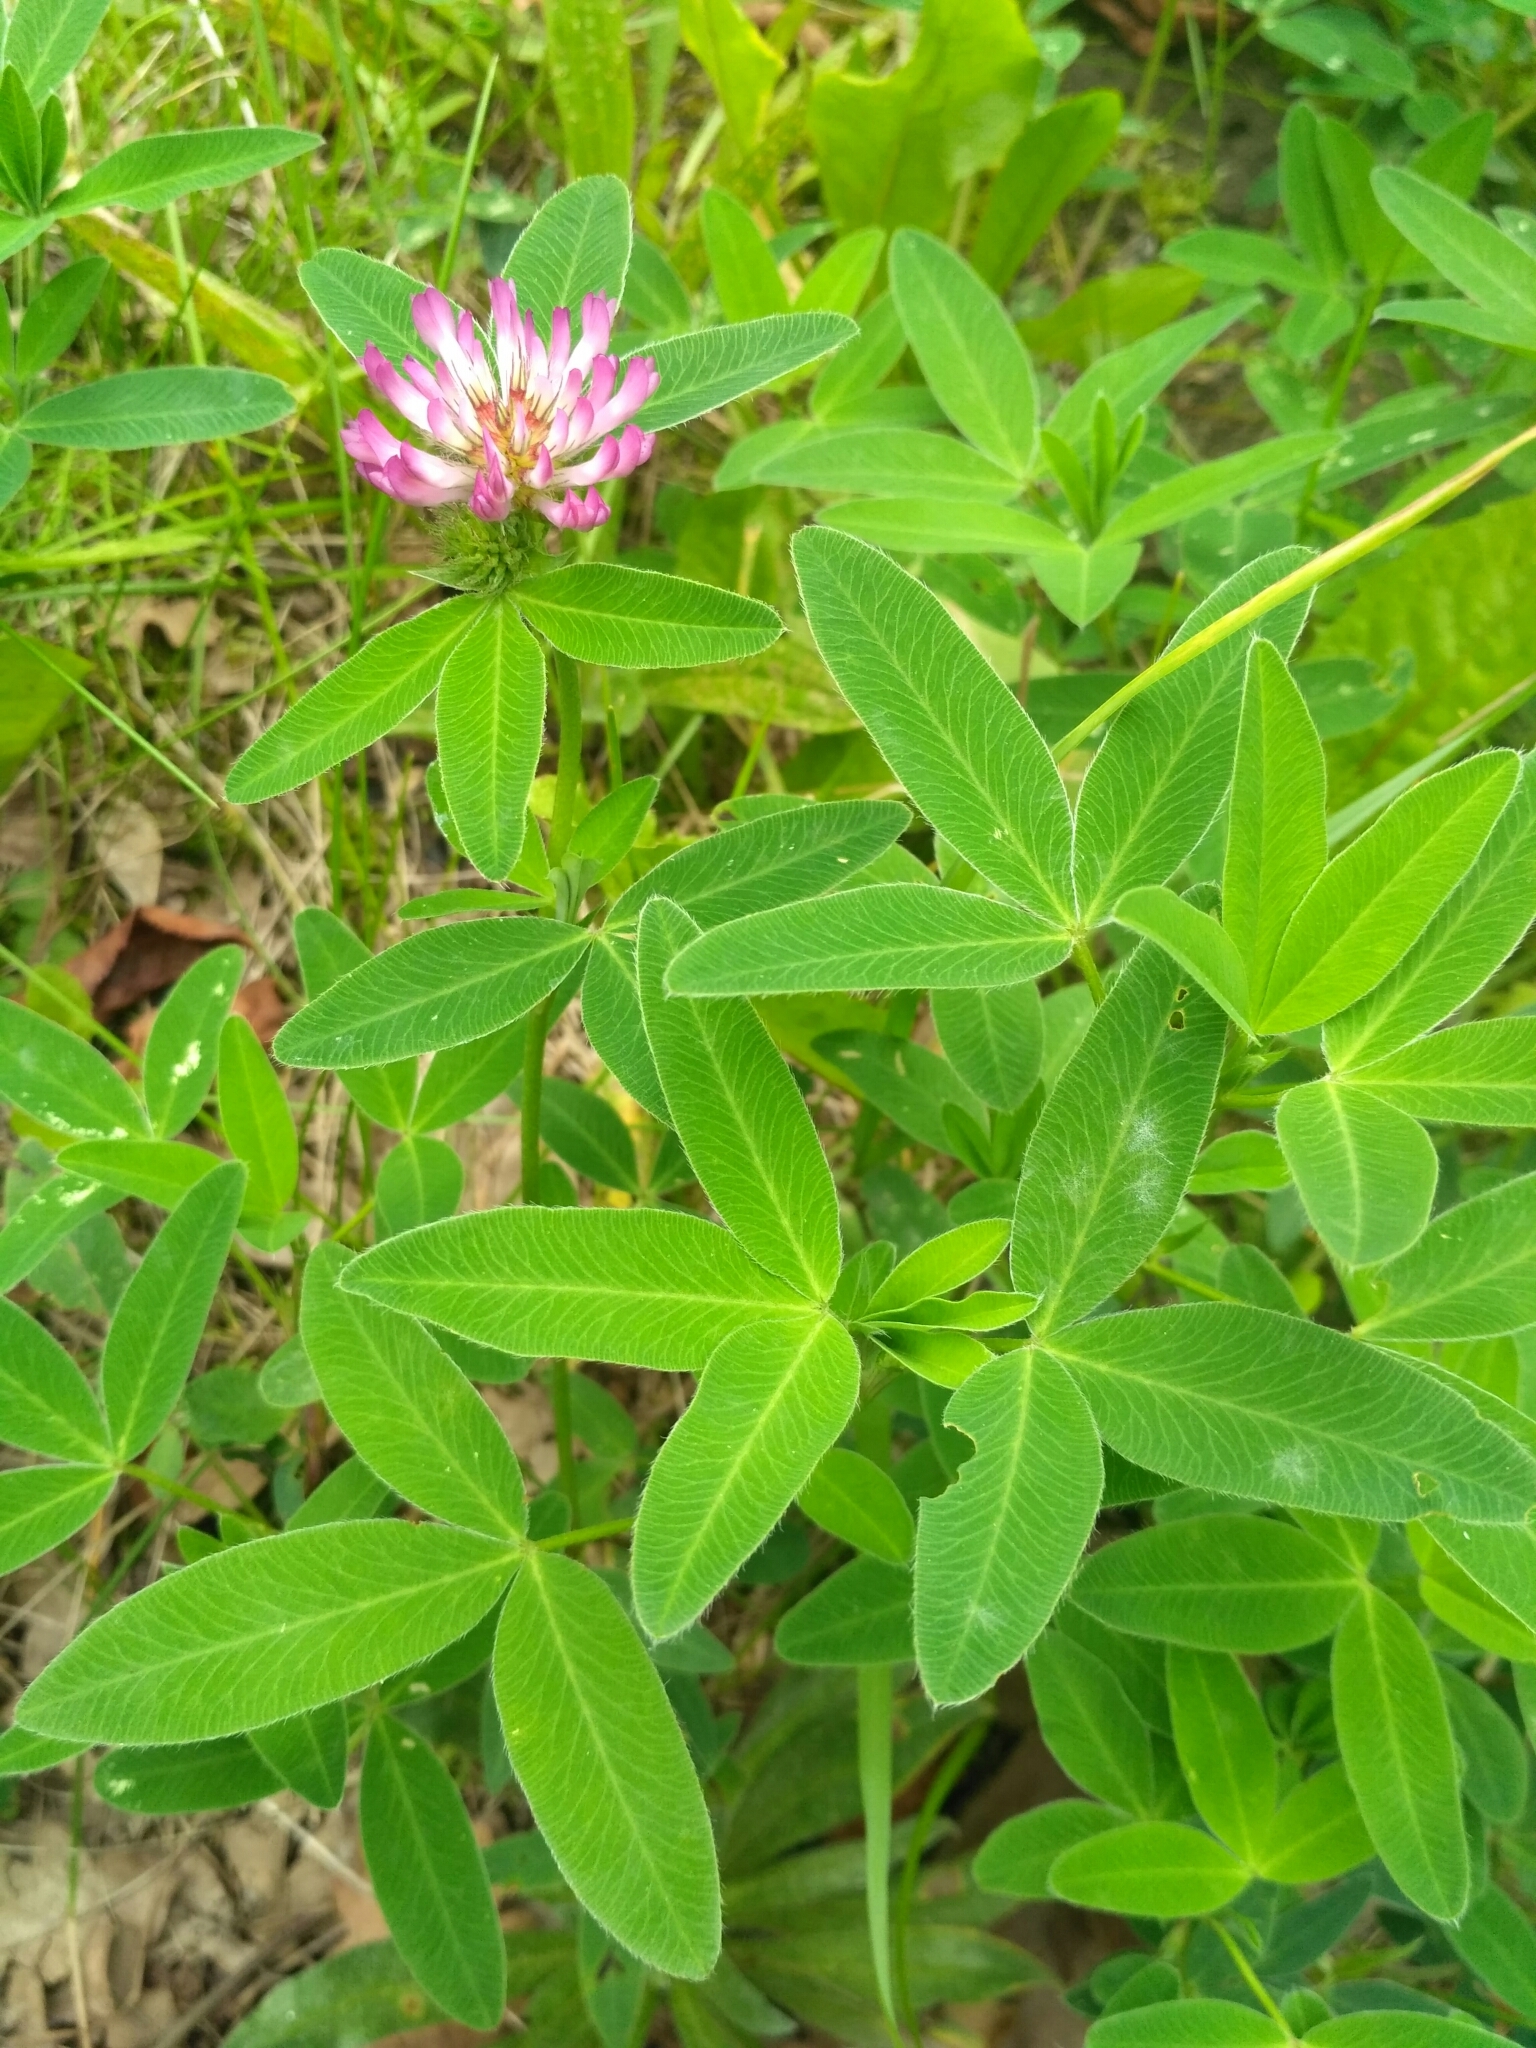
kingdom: Plantae
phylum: Tracheophyta
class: Magnoliopsida
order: Fabales
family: Fabaceae
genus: Trifolium
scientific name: Trifolium medium
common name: Zigzag clover
